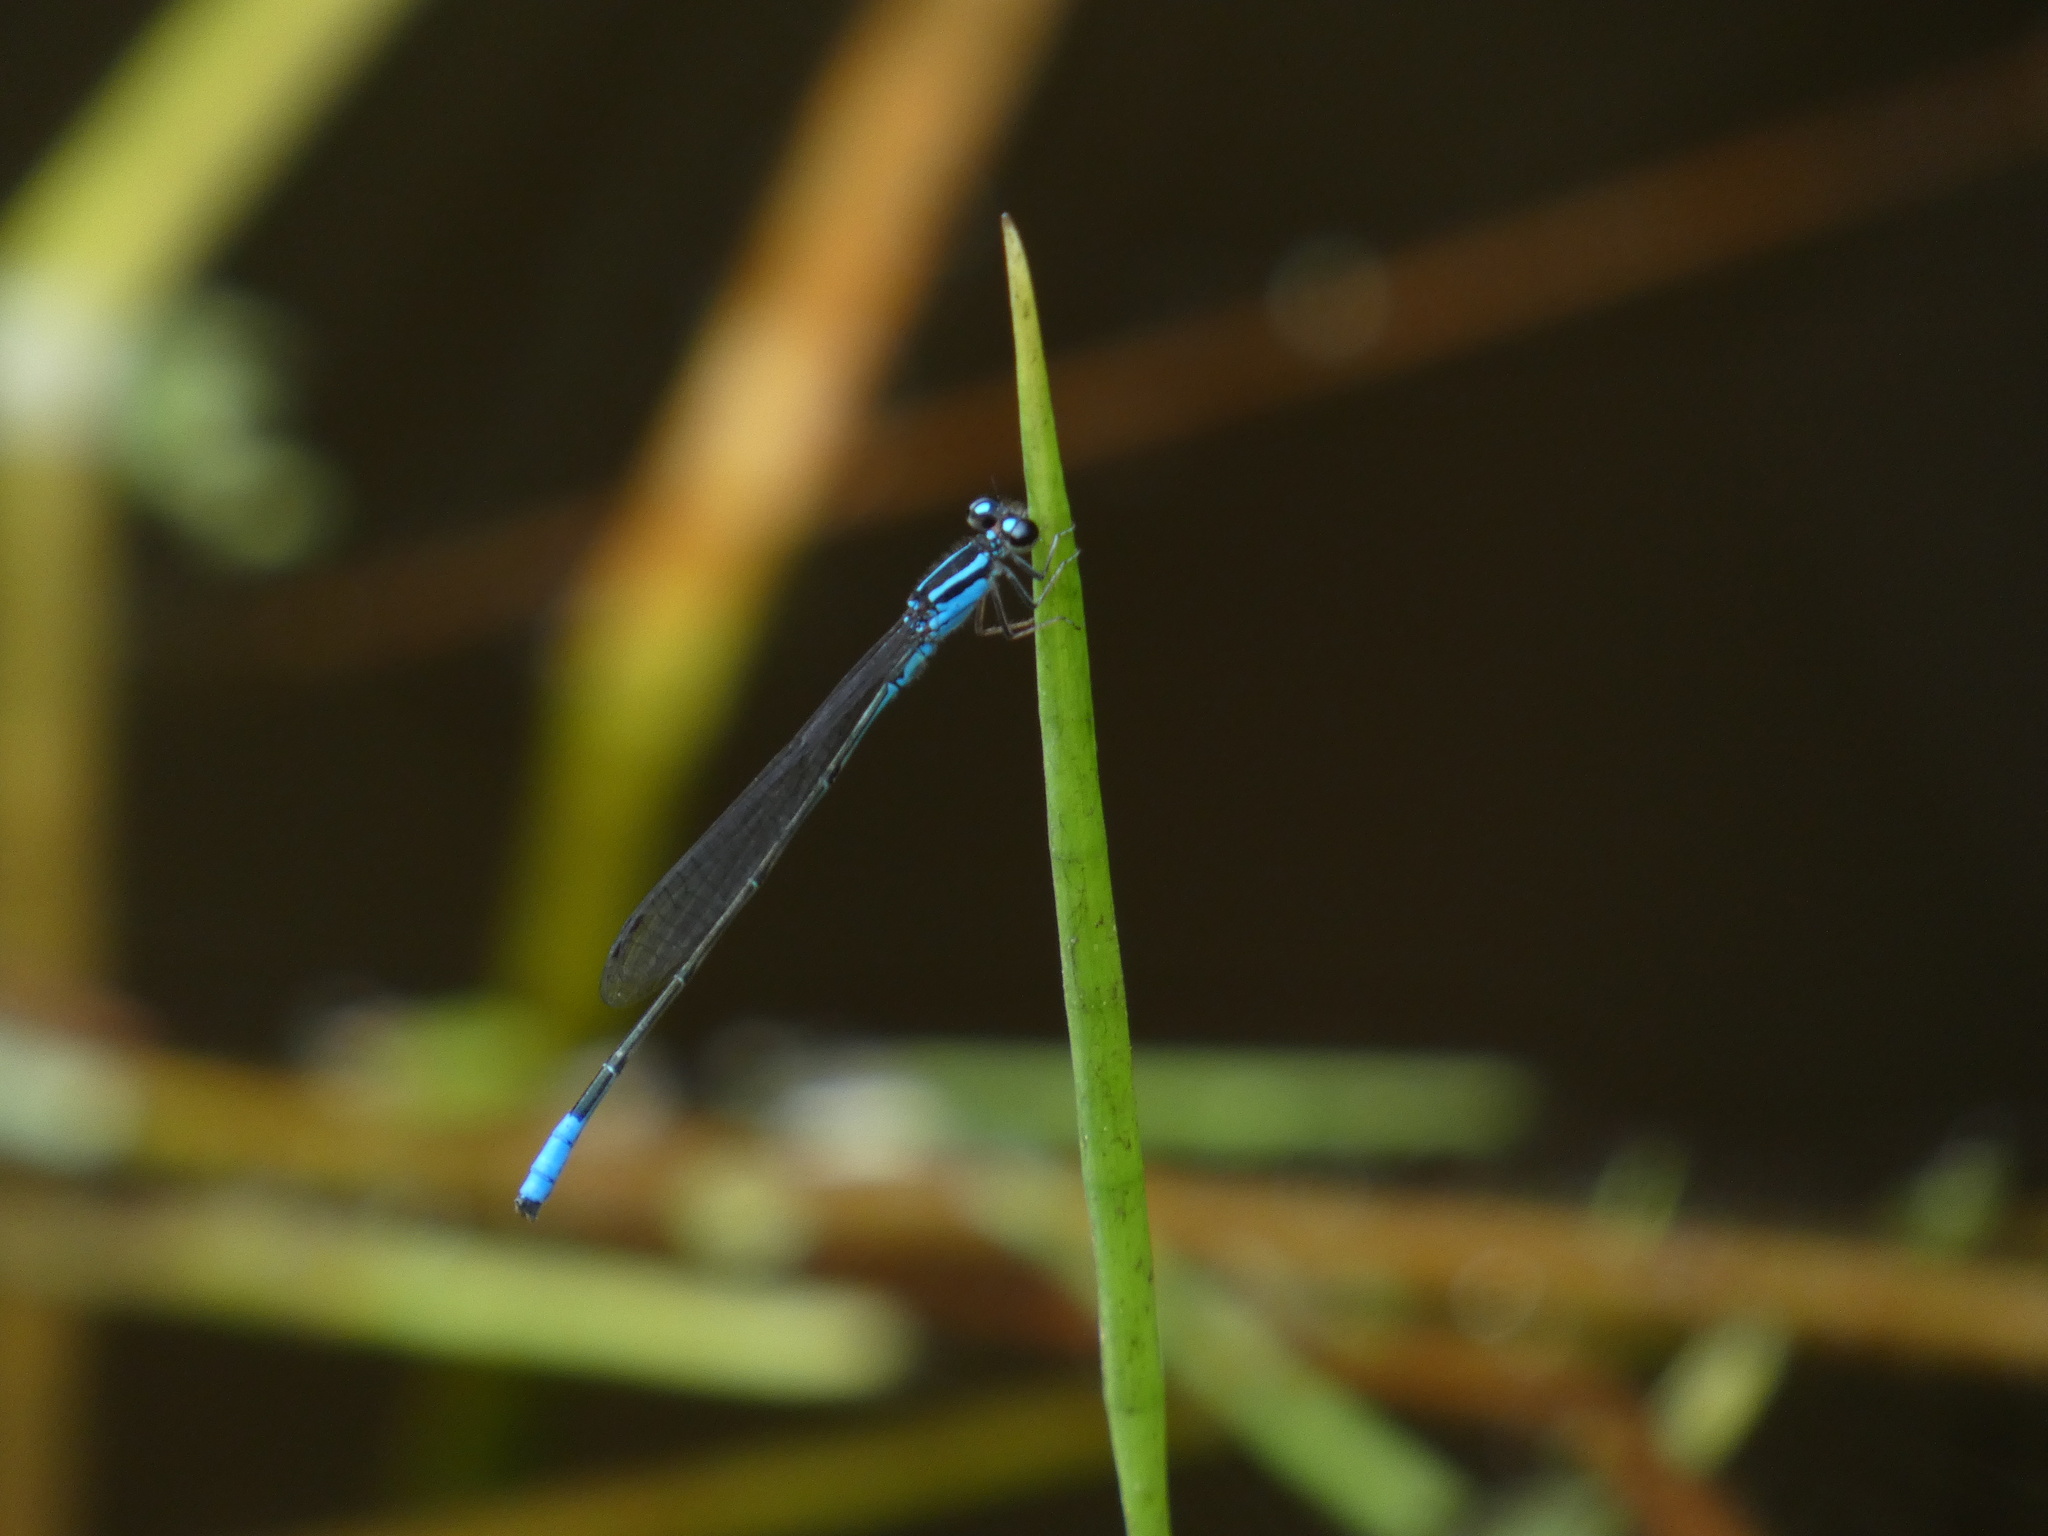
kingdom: Animalia
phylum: Arthropoda
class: Insecta
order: Odonata
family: Coenagrionidae
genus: Acanthagrion
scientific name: Acanthagrion gracile
